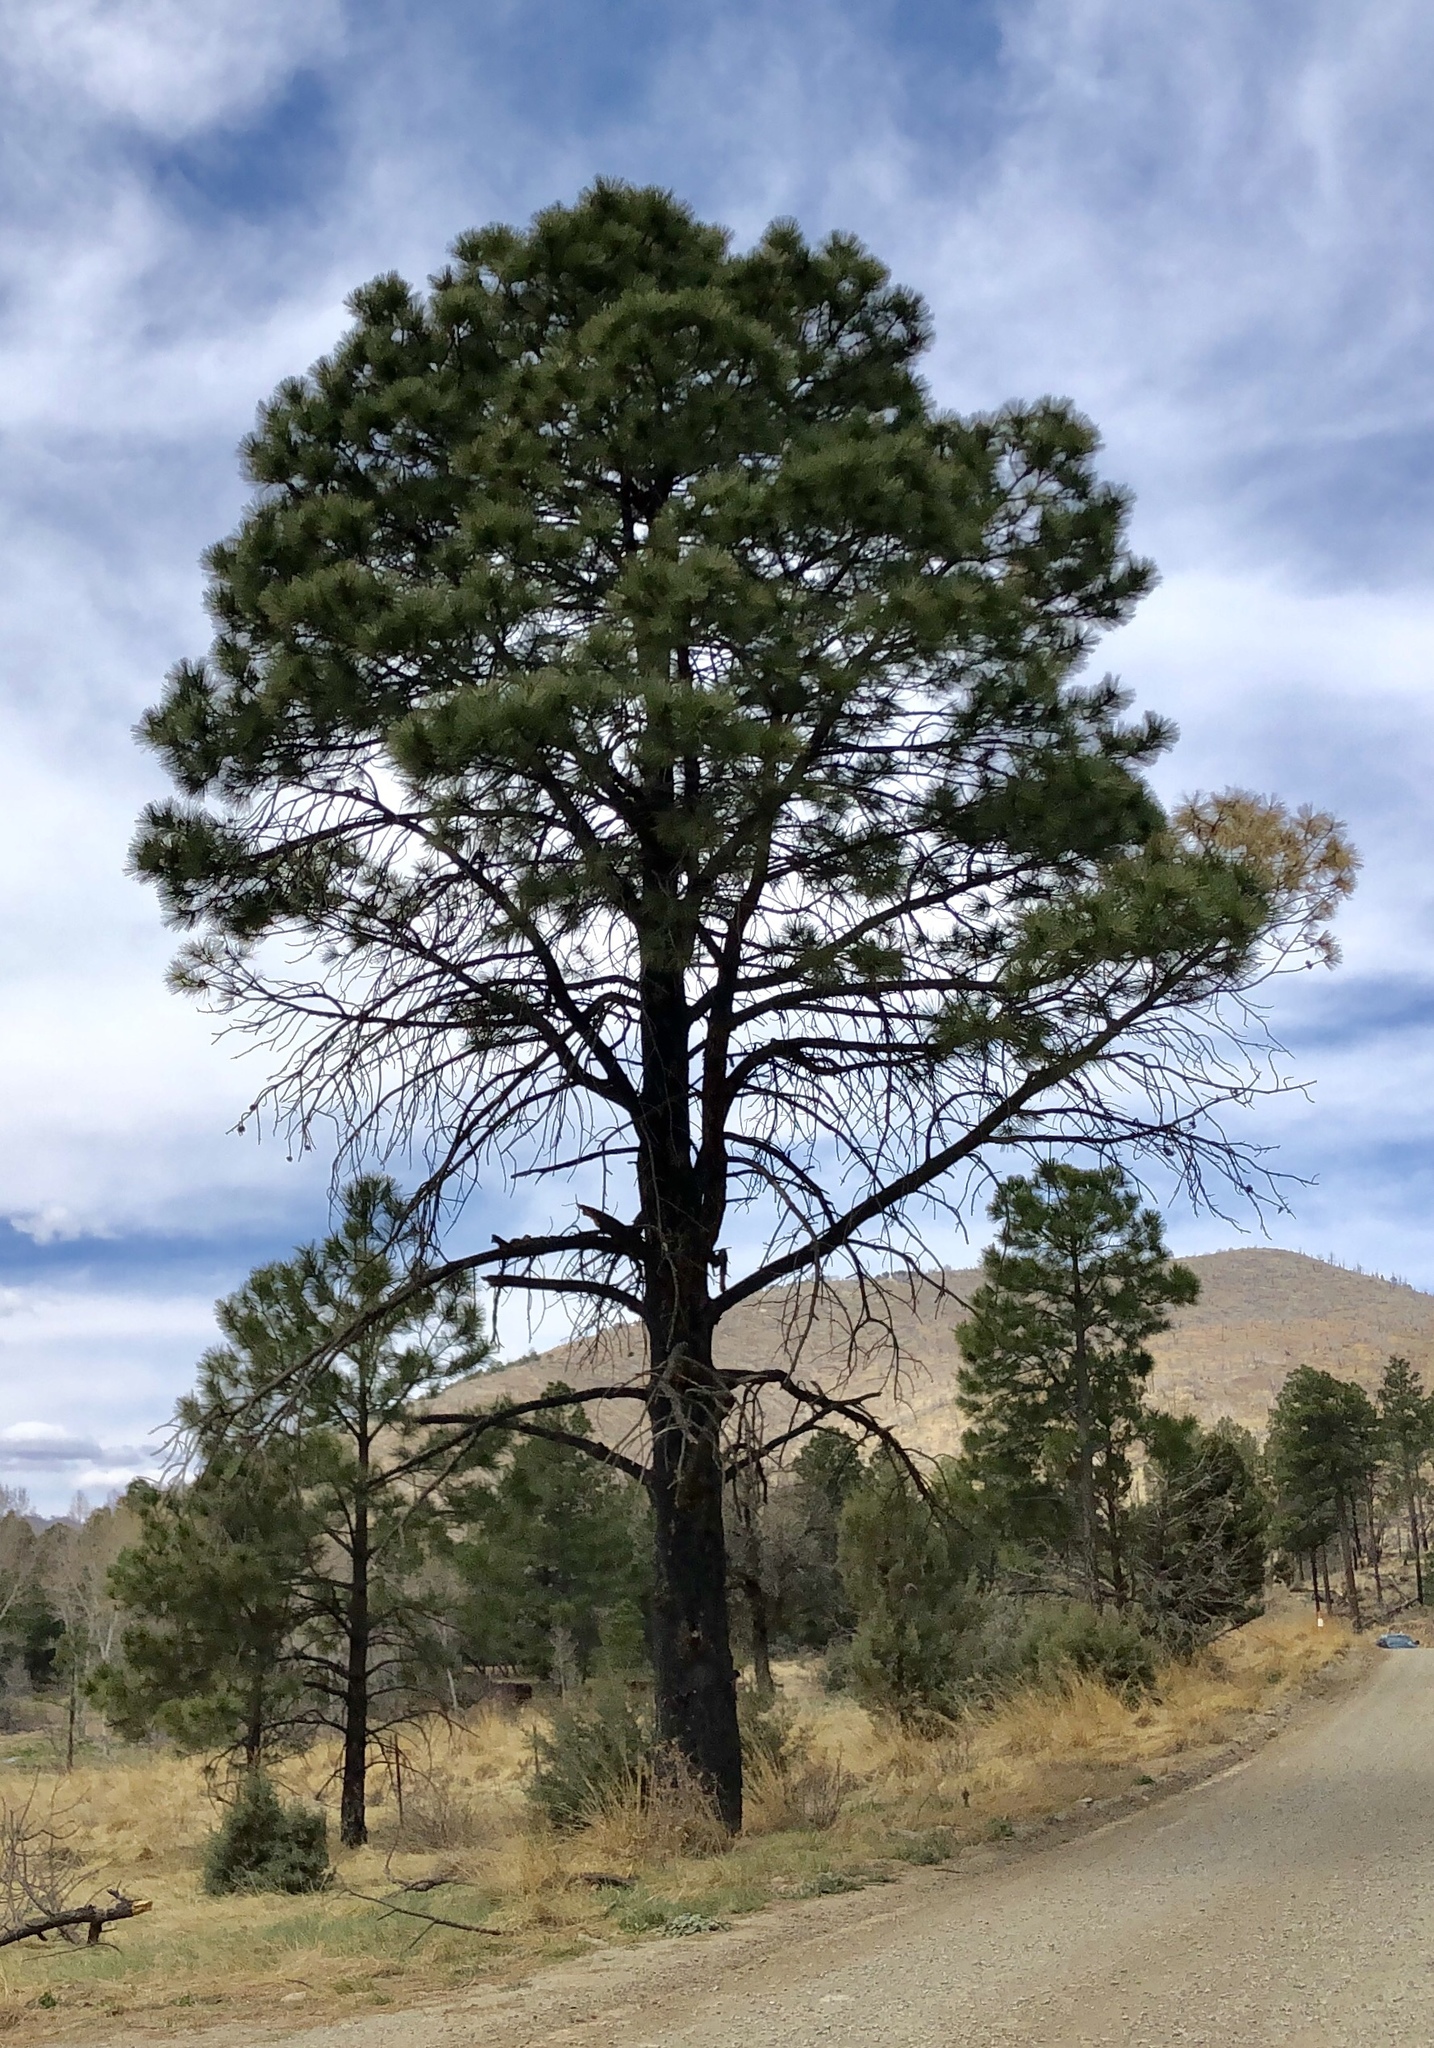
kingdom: Plantae
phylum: Tracheophyta
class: Pinopsida
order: Pinales
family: Pinaceae
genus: Pinus
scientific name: Pinus ponderosa
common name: Western yellow-pine
